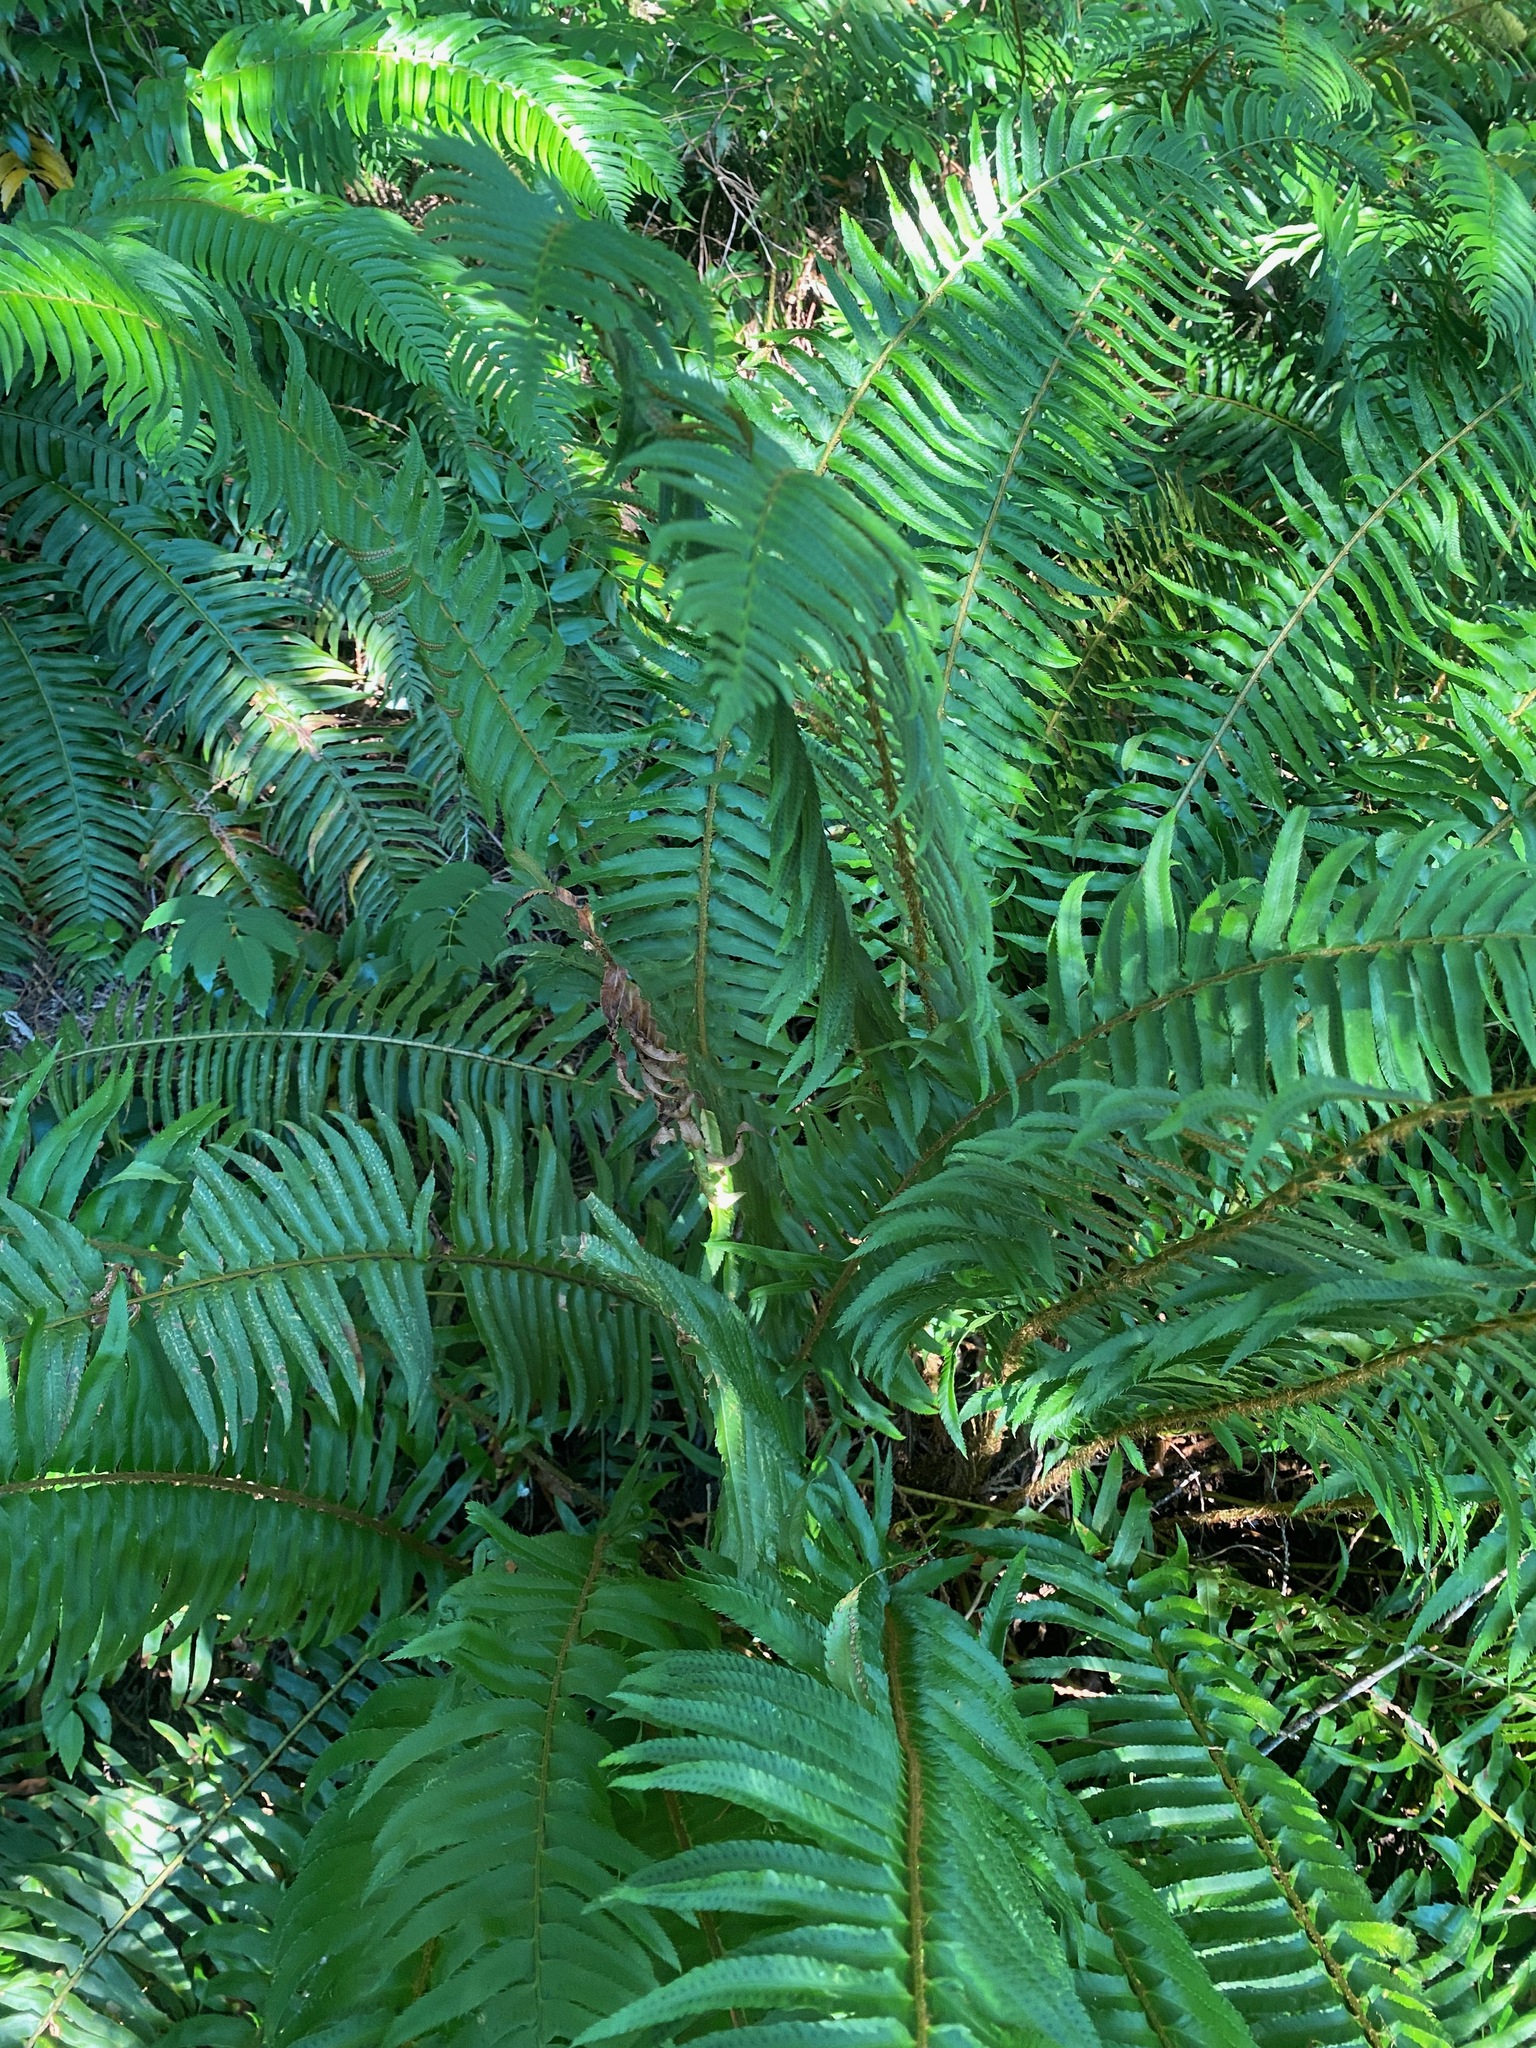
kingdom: Plantae
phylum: Tracheophyta
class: Polypodiopsida
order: Polypodiales
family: Dryopteridaceae
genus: Polystichum
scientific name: Polystichum munitum
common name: Western sword-fern
